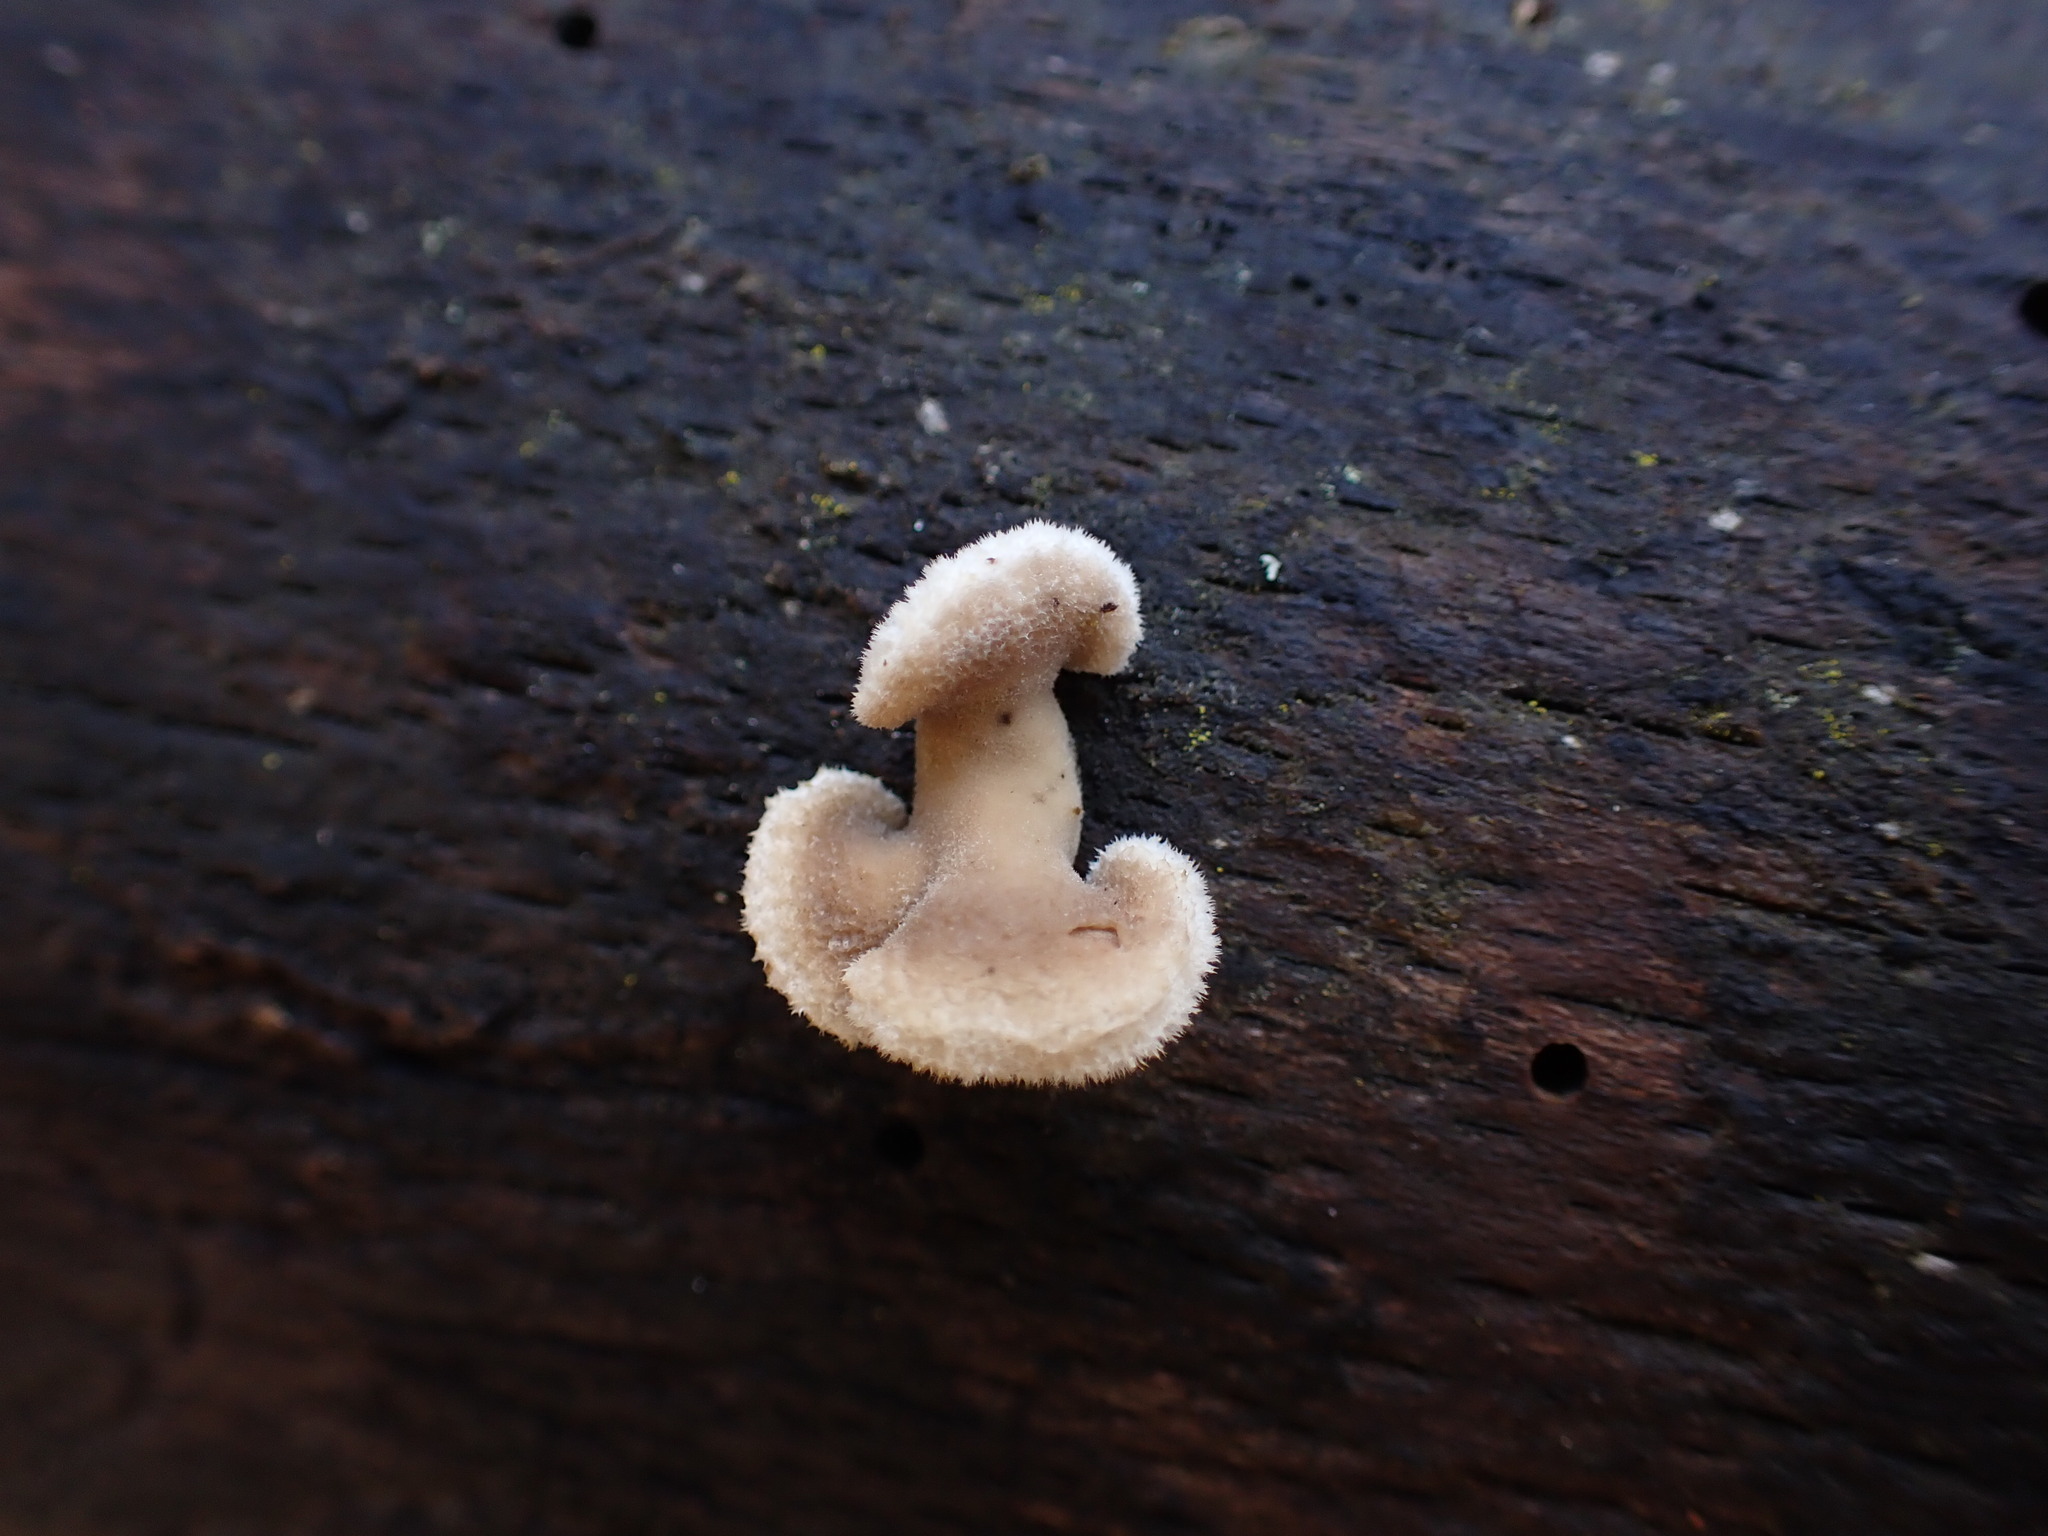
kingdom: Fungi
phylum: Basidiomycota
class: Agaricomycetes
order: Agaricales
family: Schizophyllaceae
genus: Schizophyllum
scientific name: Schizophyllum commune
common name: Common porecrust
